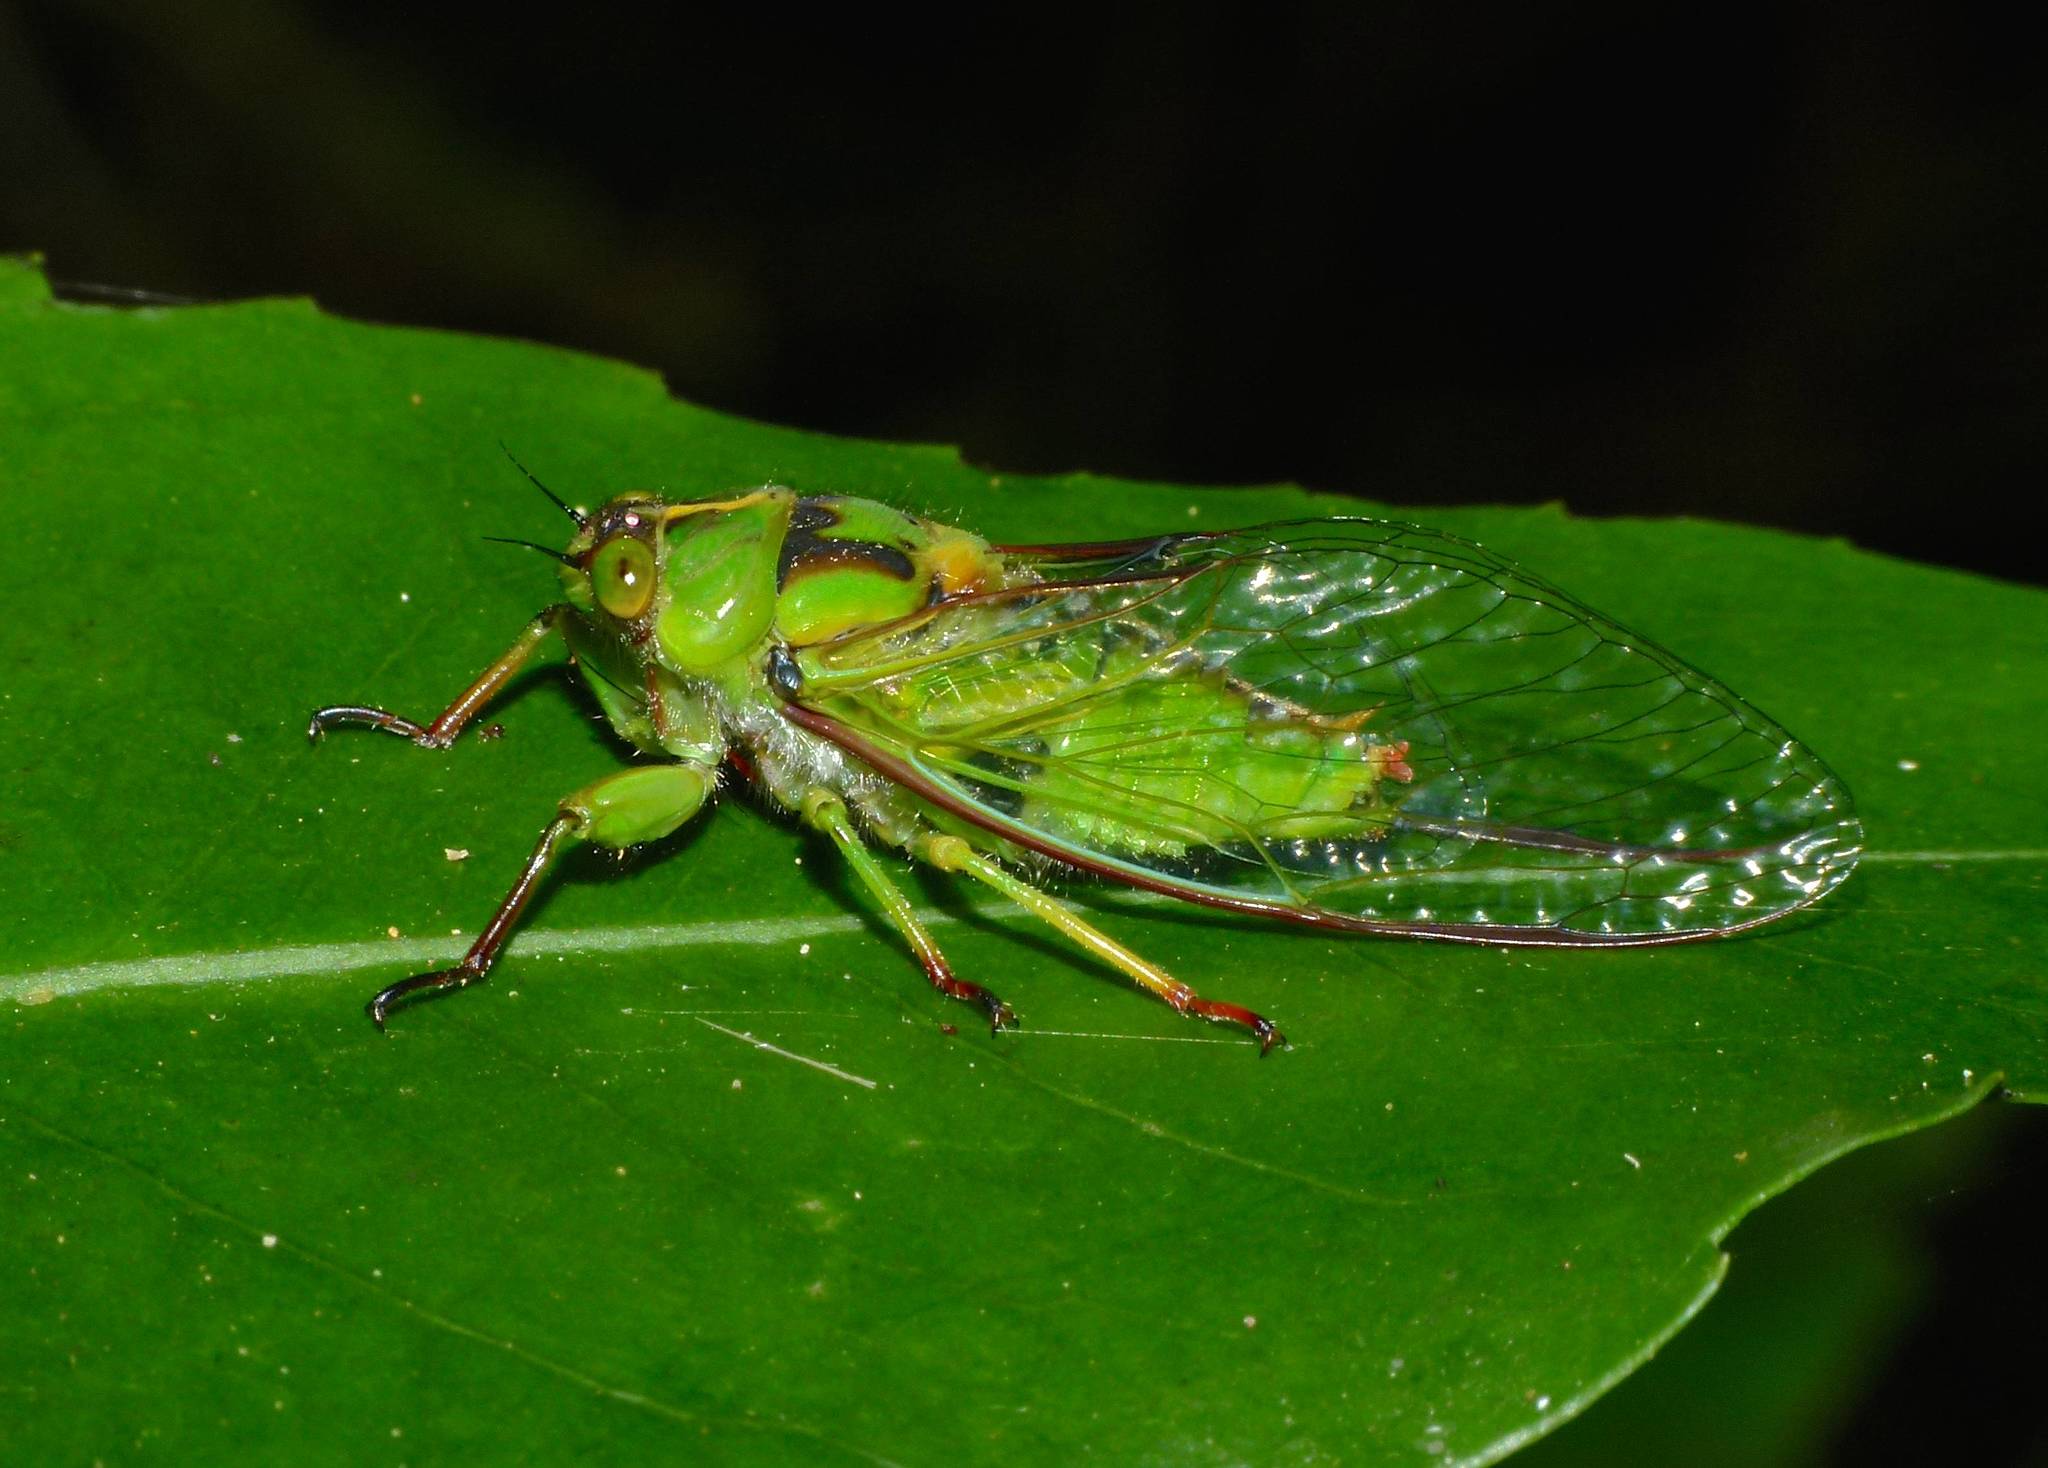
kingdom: Animalia
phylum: Arthropoda
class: Insecta
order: Hemiptera
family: Cicadidae
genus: Kikihia
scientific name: Kikihia subalpina
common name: Chathams cicada
